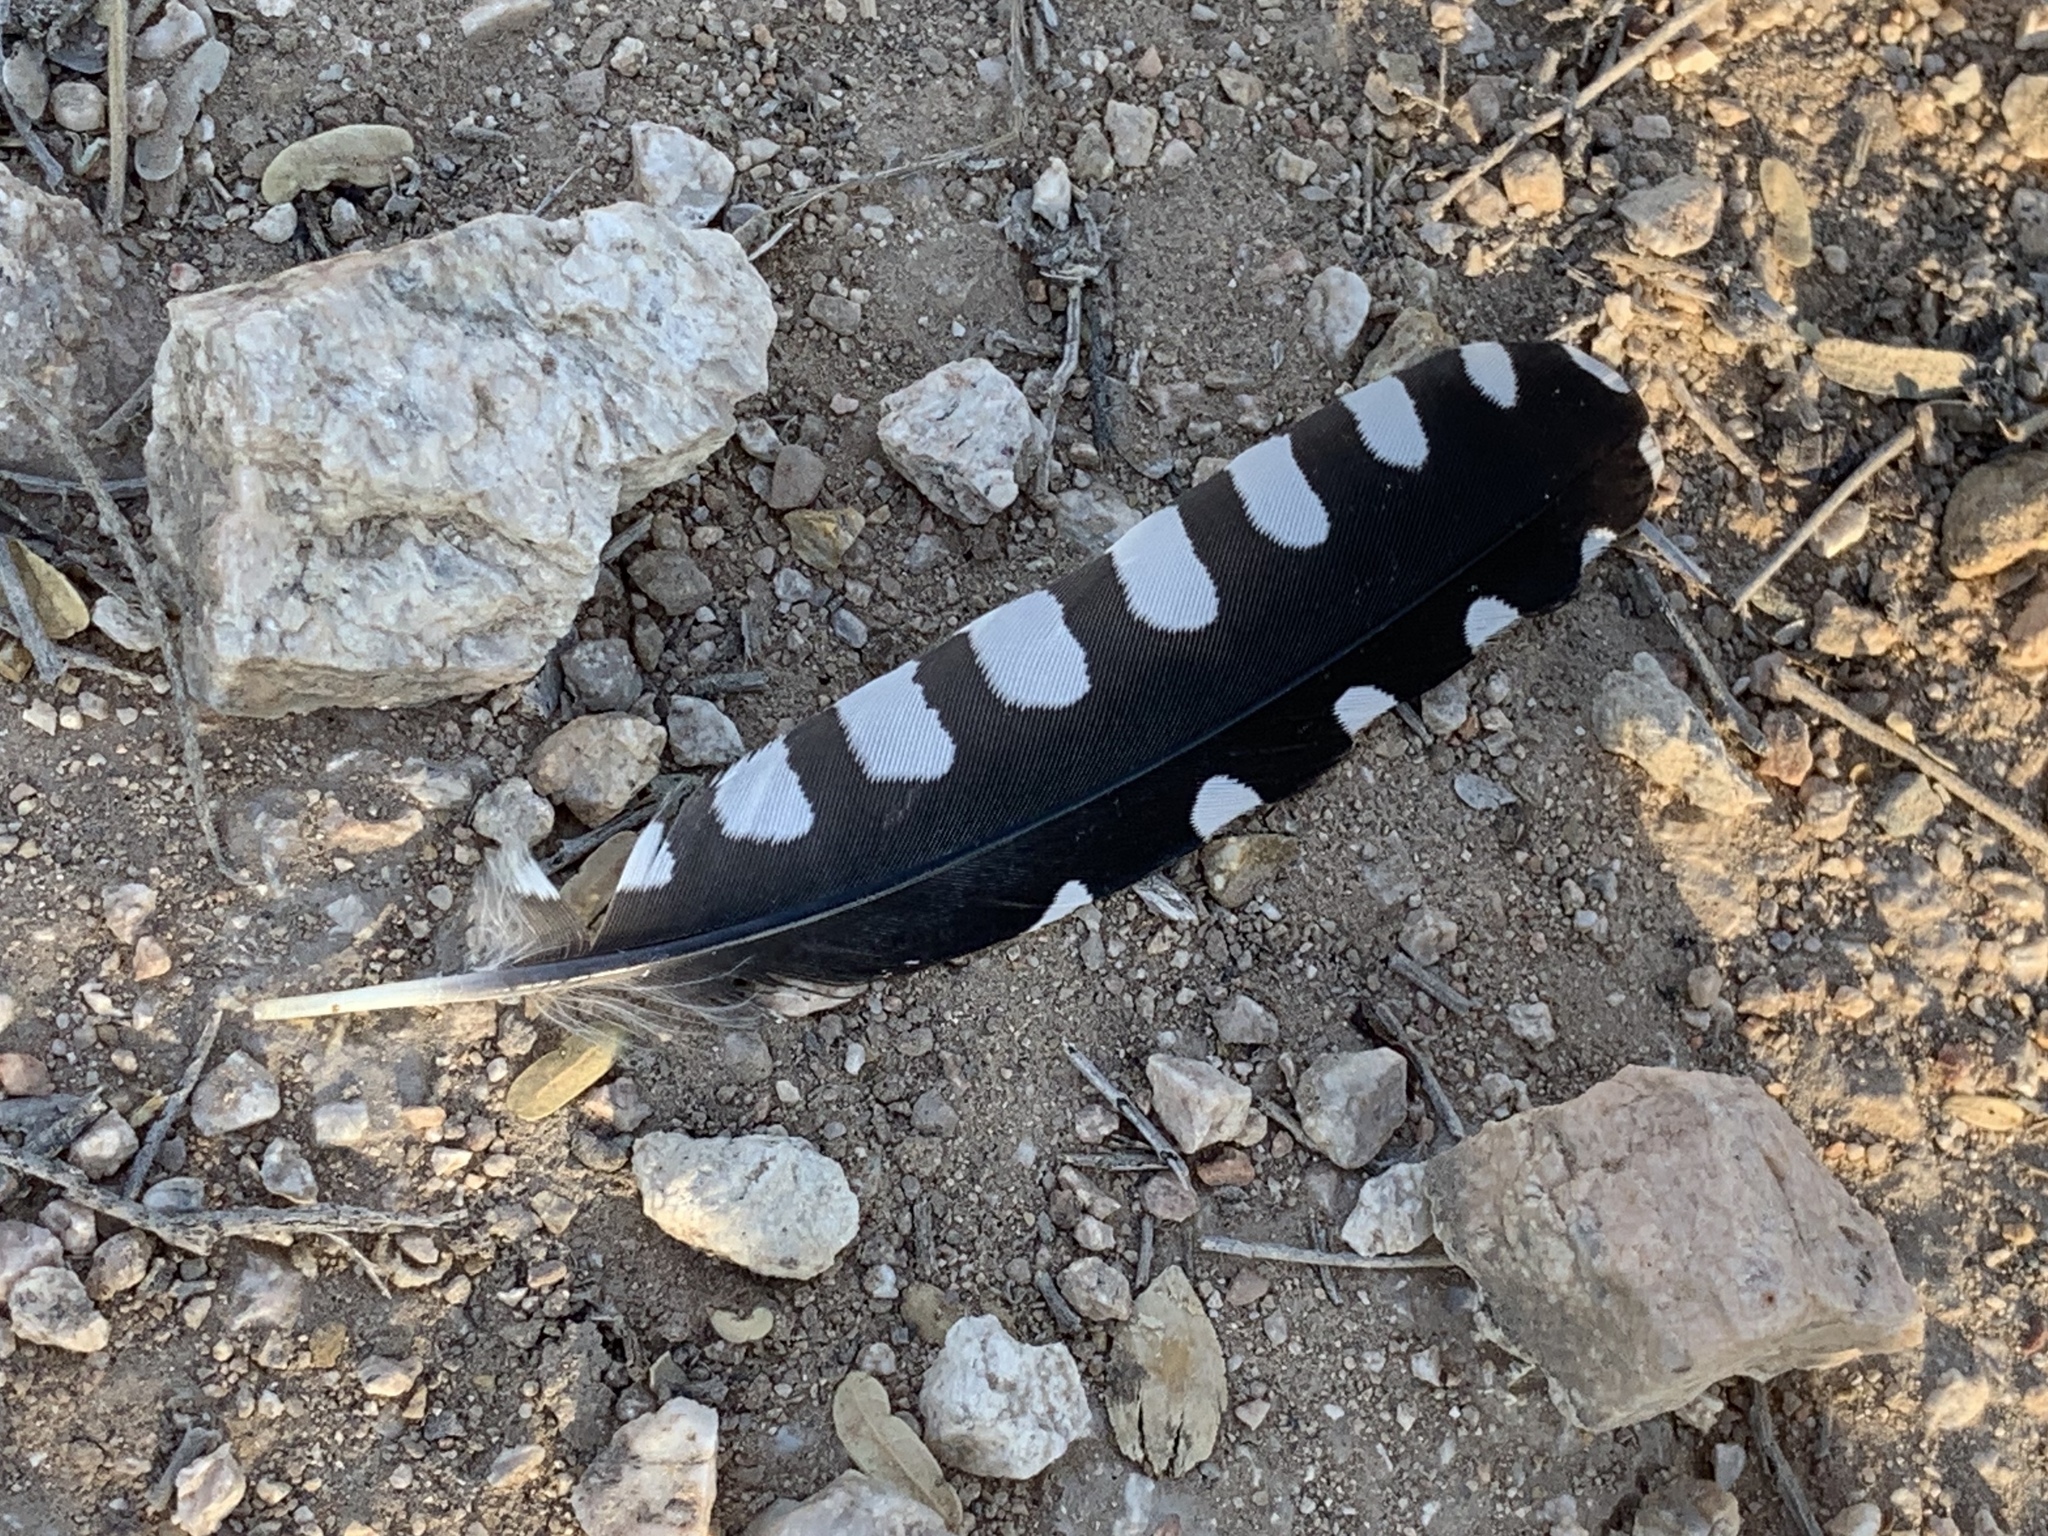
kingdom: Animalia
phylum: Chordata
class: Aves
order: Piciformes
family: Picidae
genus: Melanerpes
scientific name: Melanerpes uropygialis
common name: Gila woodpecker
